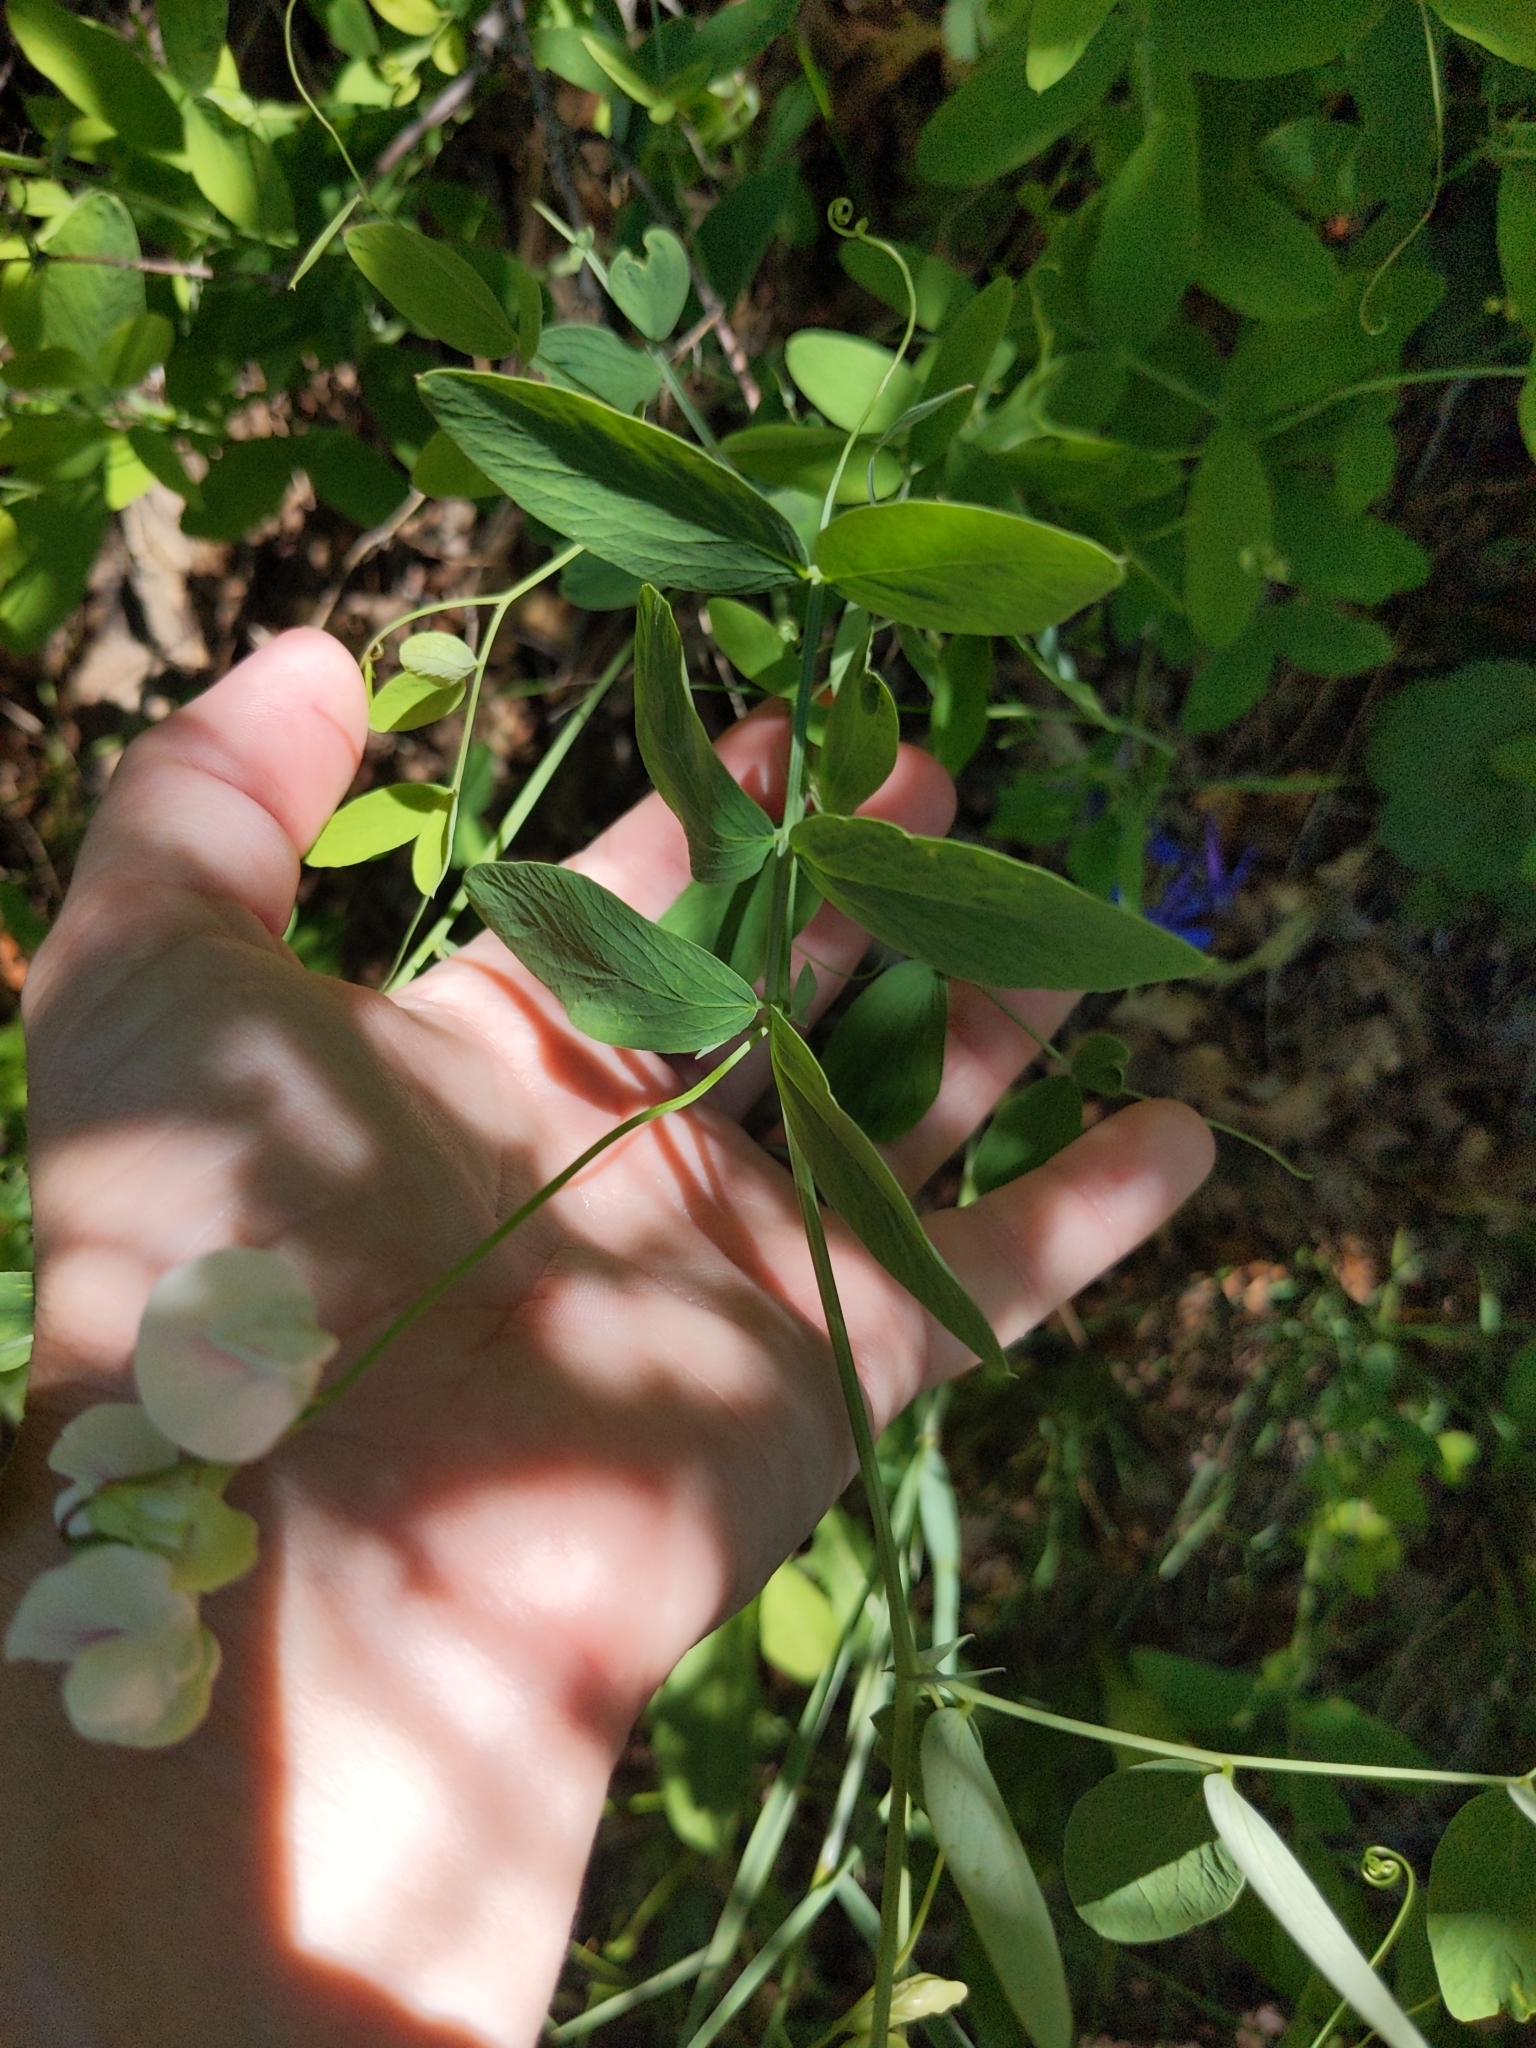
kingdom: Plantae
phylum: Tracheophyta
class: Magnoliopsida
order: Fabales
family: Fabaceae
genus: Lathyrus
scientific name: Lathyrus lanszwertii
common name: Lanszwert's vetchling
